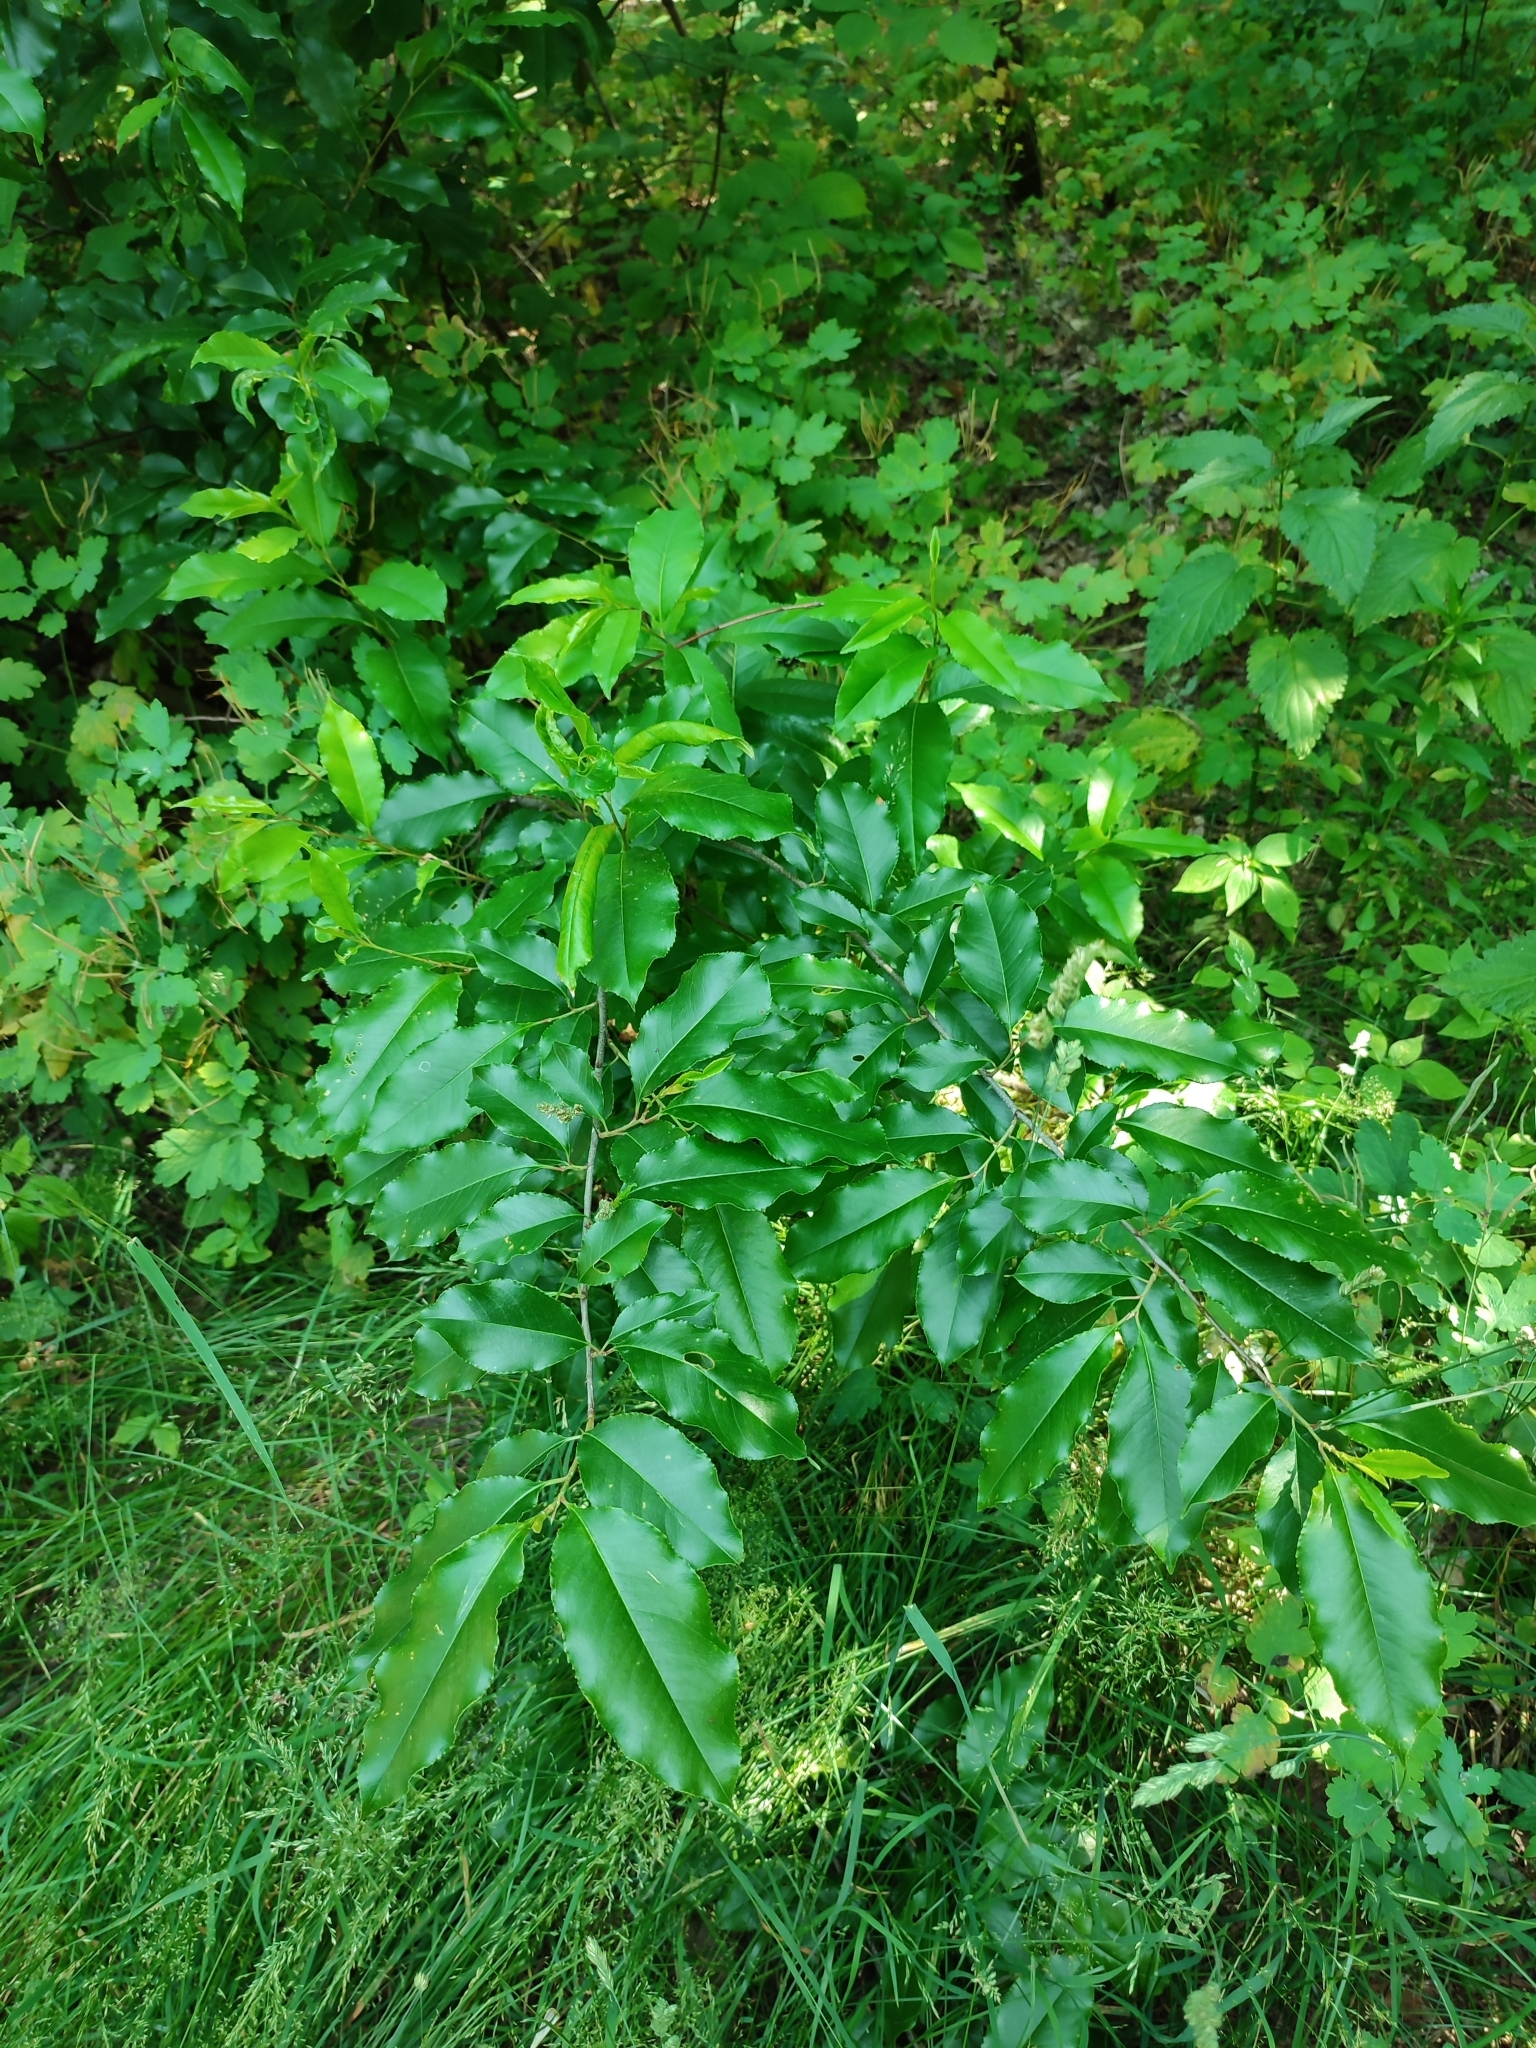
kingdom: Plantae
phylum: Tracheophyta
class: Magnoliopsida
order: Rosales
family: Rosaceae
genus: Prunus
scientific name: Prunus serotina
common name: Black cherry
